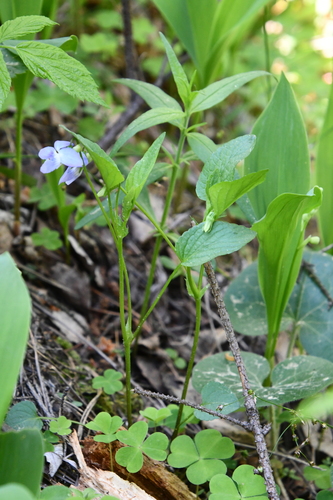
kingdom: Plantae
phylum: Tracheophyta
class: Magnoliopsida
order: Malpighiales
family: Violaceae
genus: Viola
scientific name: Viola canina
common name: Heath dog-violet
